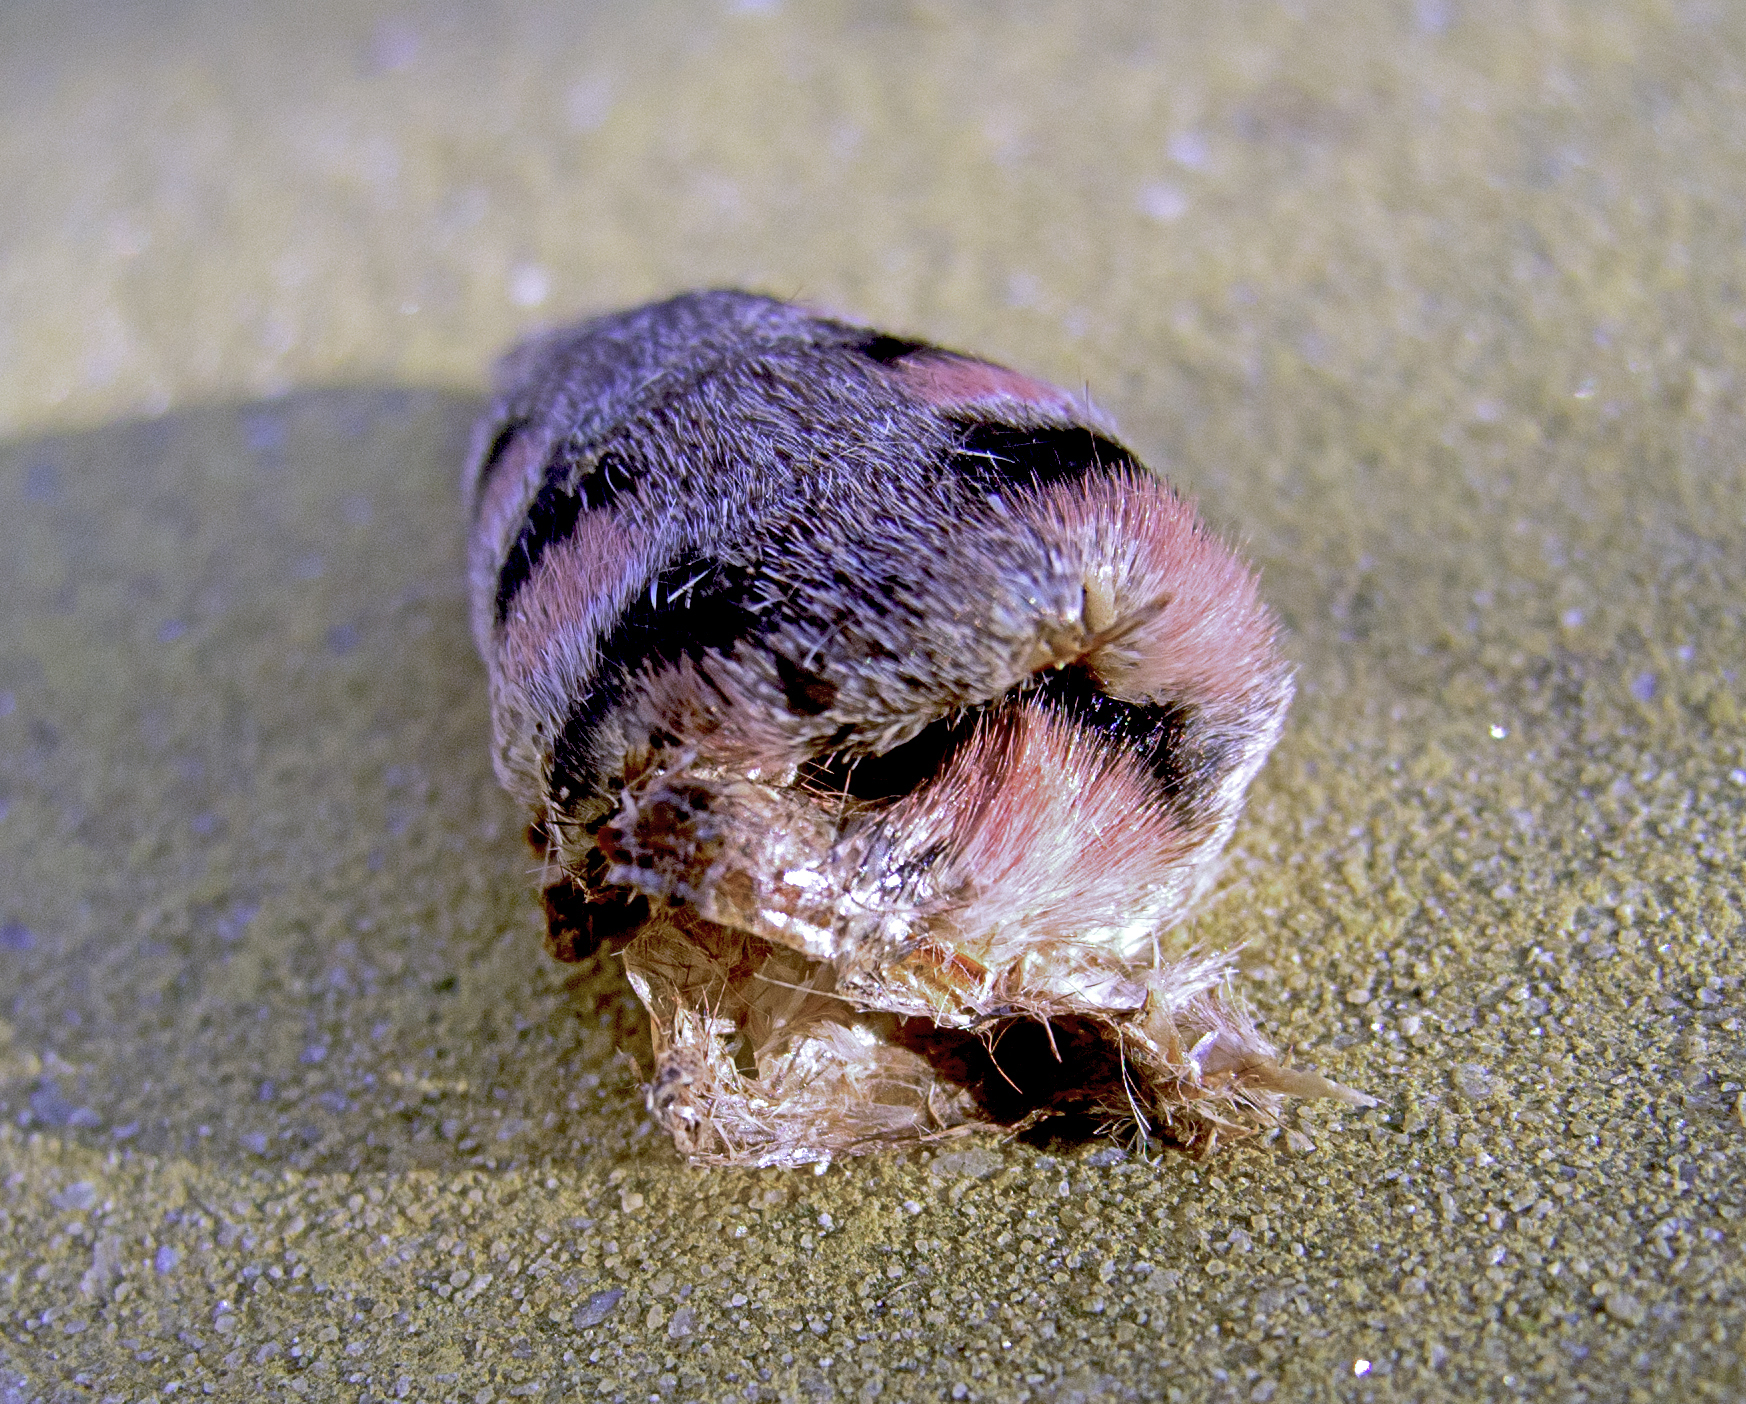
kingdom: Animalia
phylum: Arthropoda
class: Insecta
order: Lepidoptera
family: Sphingidae
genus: Agrius
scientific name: Agrius convolvuli
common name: Convolvulus hawkmoth
